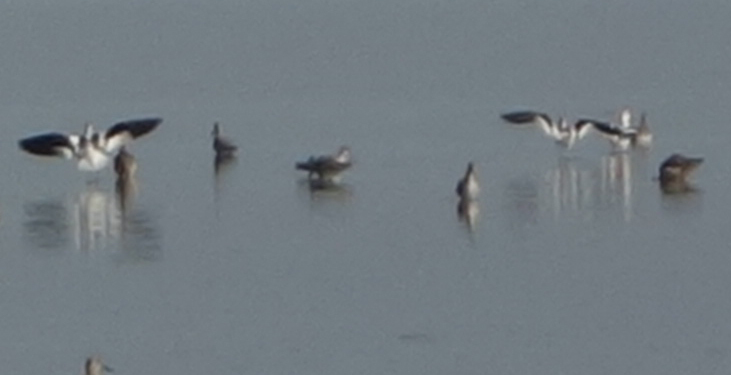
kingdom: Animalia
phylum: Chordata
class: Aves
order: Charadriiformes
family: Recurvirostridae
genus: Recurvirostra
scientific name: Recurvirostra americana
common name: American avocet
